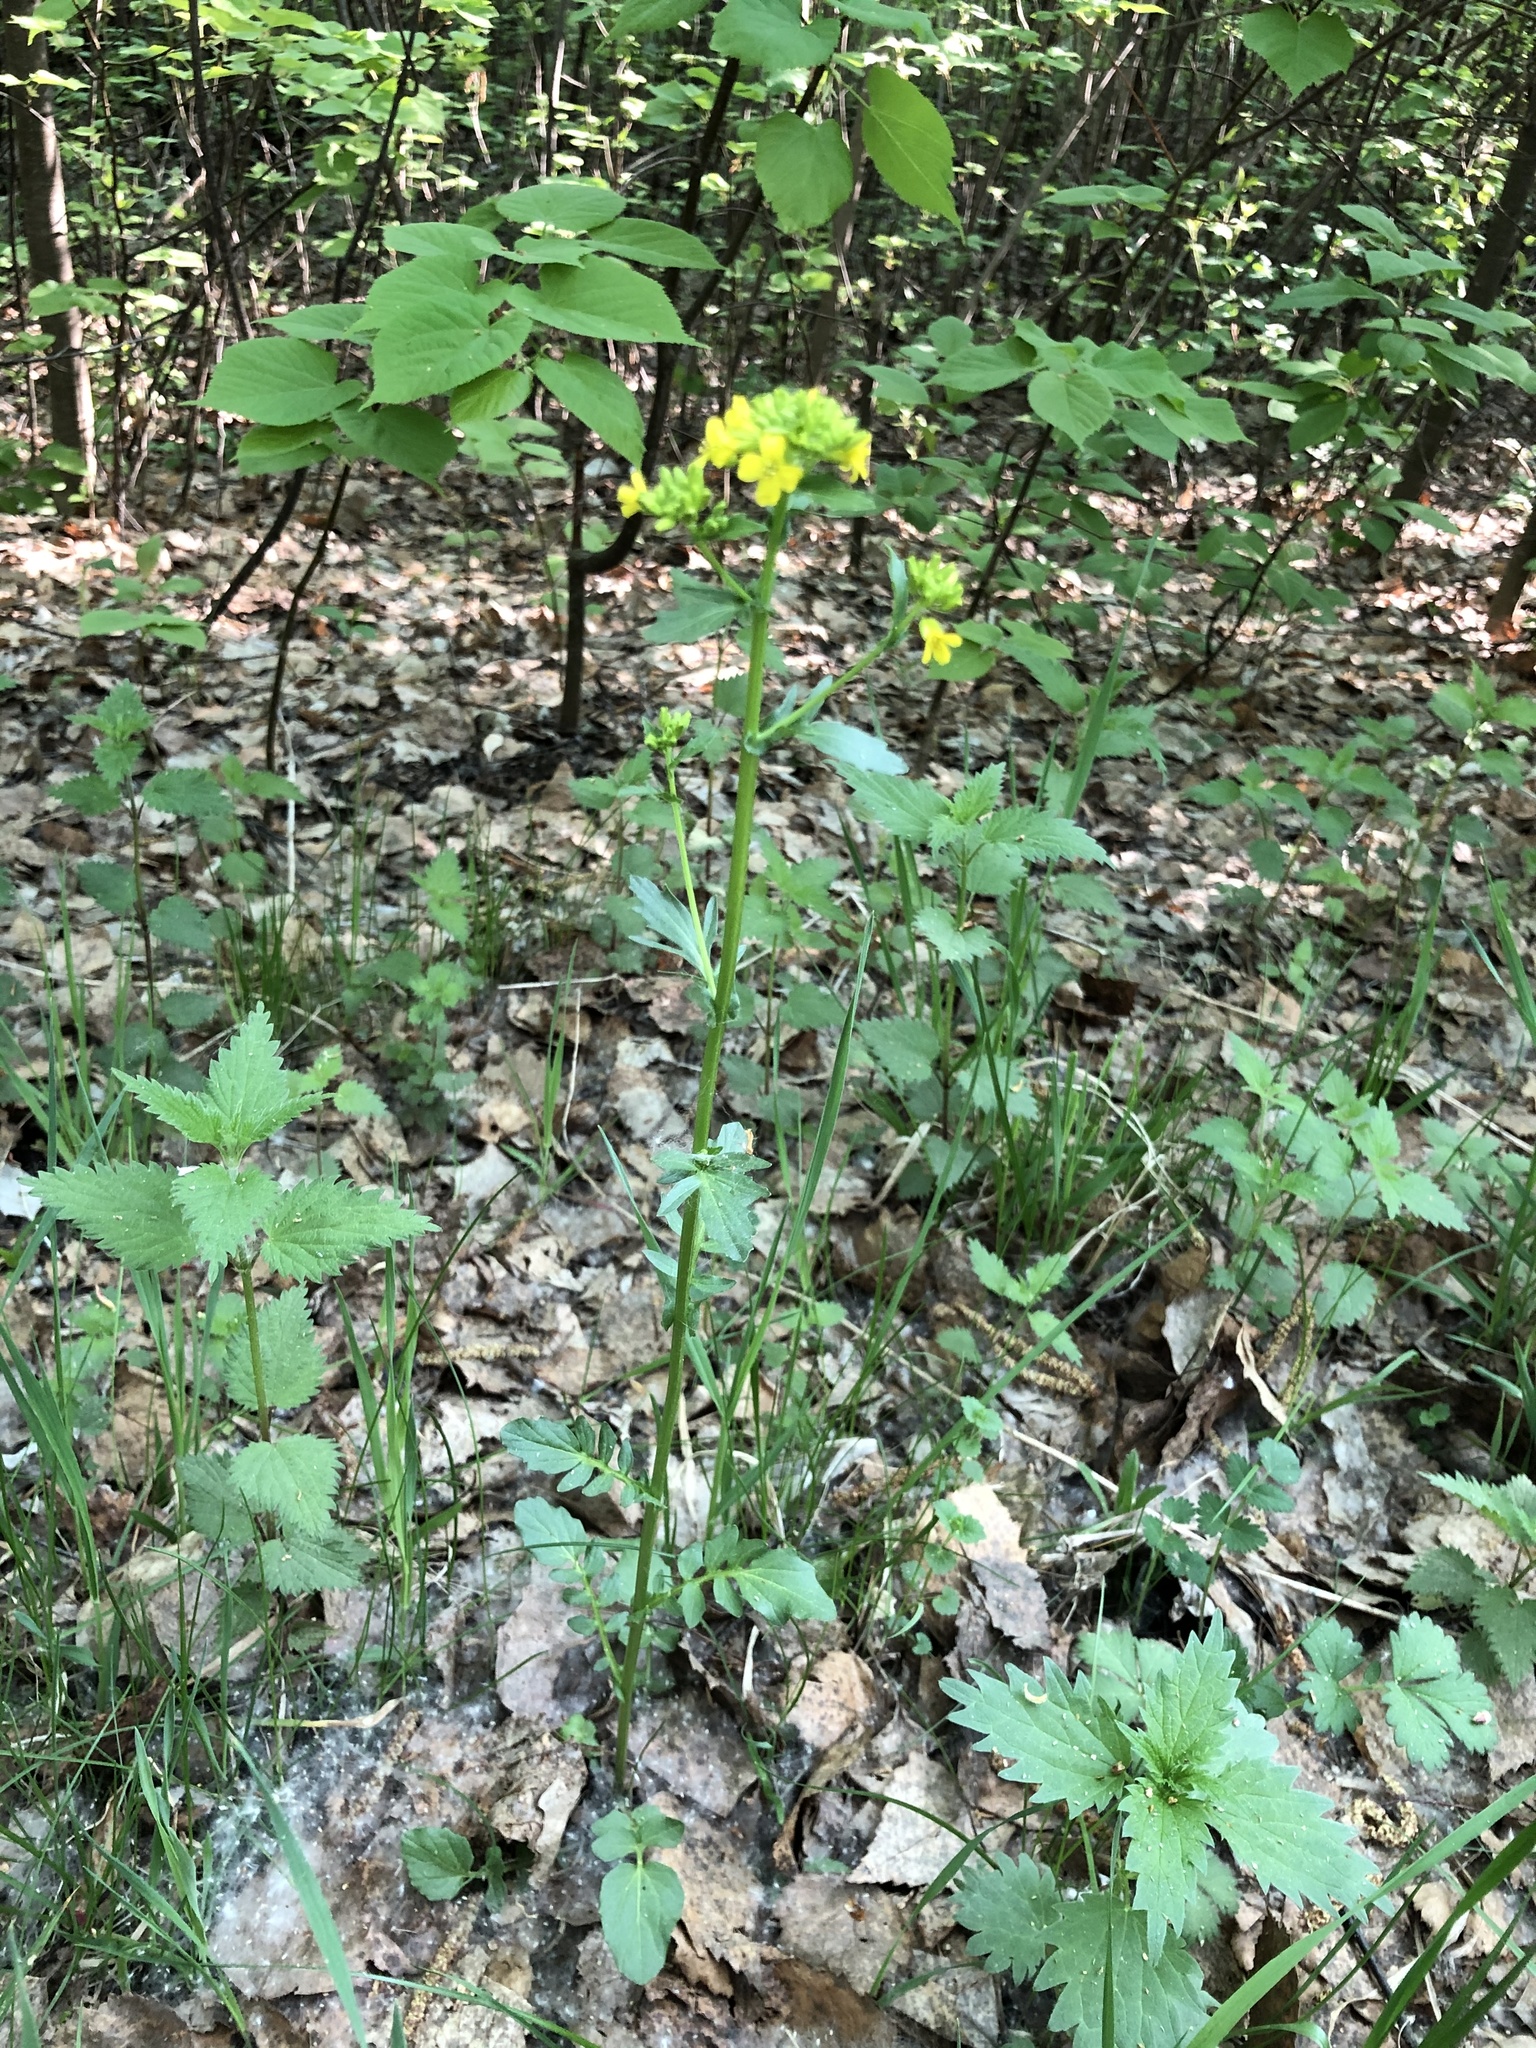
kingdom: Plantae
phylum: Tracheophyta
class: Magnoliopsida
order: Brassicales
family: Brassicaceae
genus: Barbarea
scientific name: Barbarea vulgaris
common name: Cressy-greens
